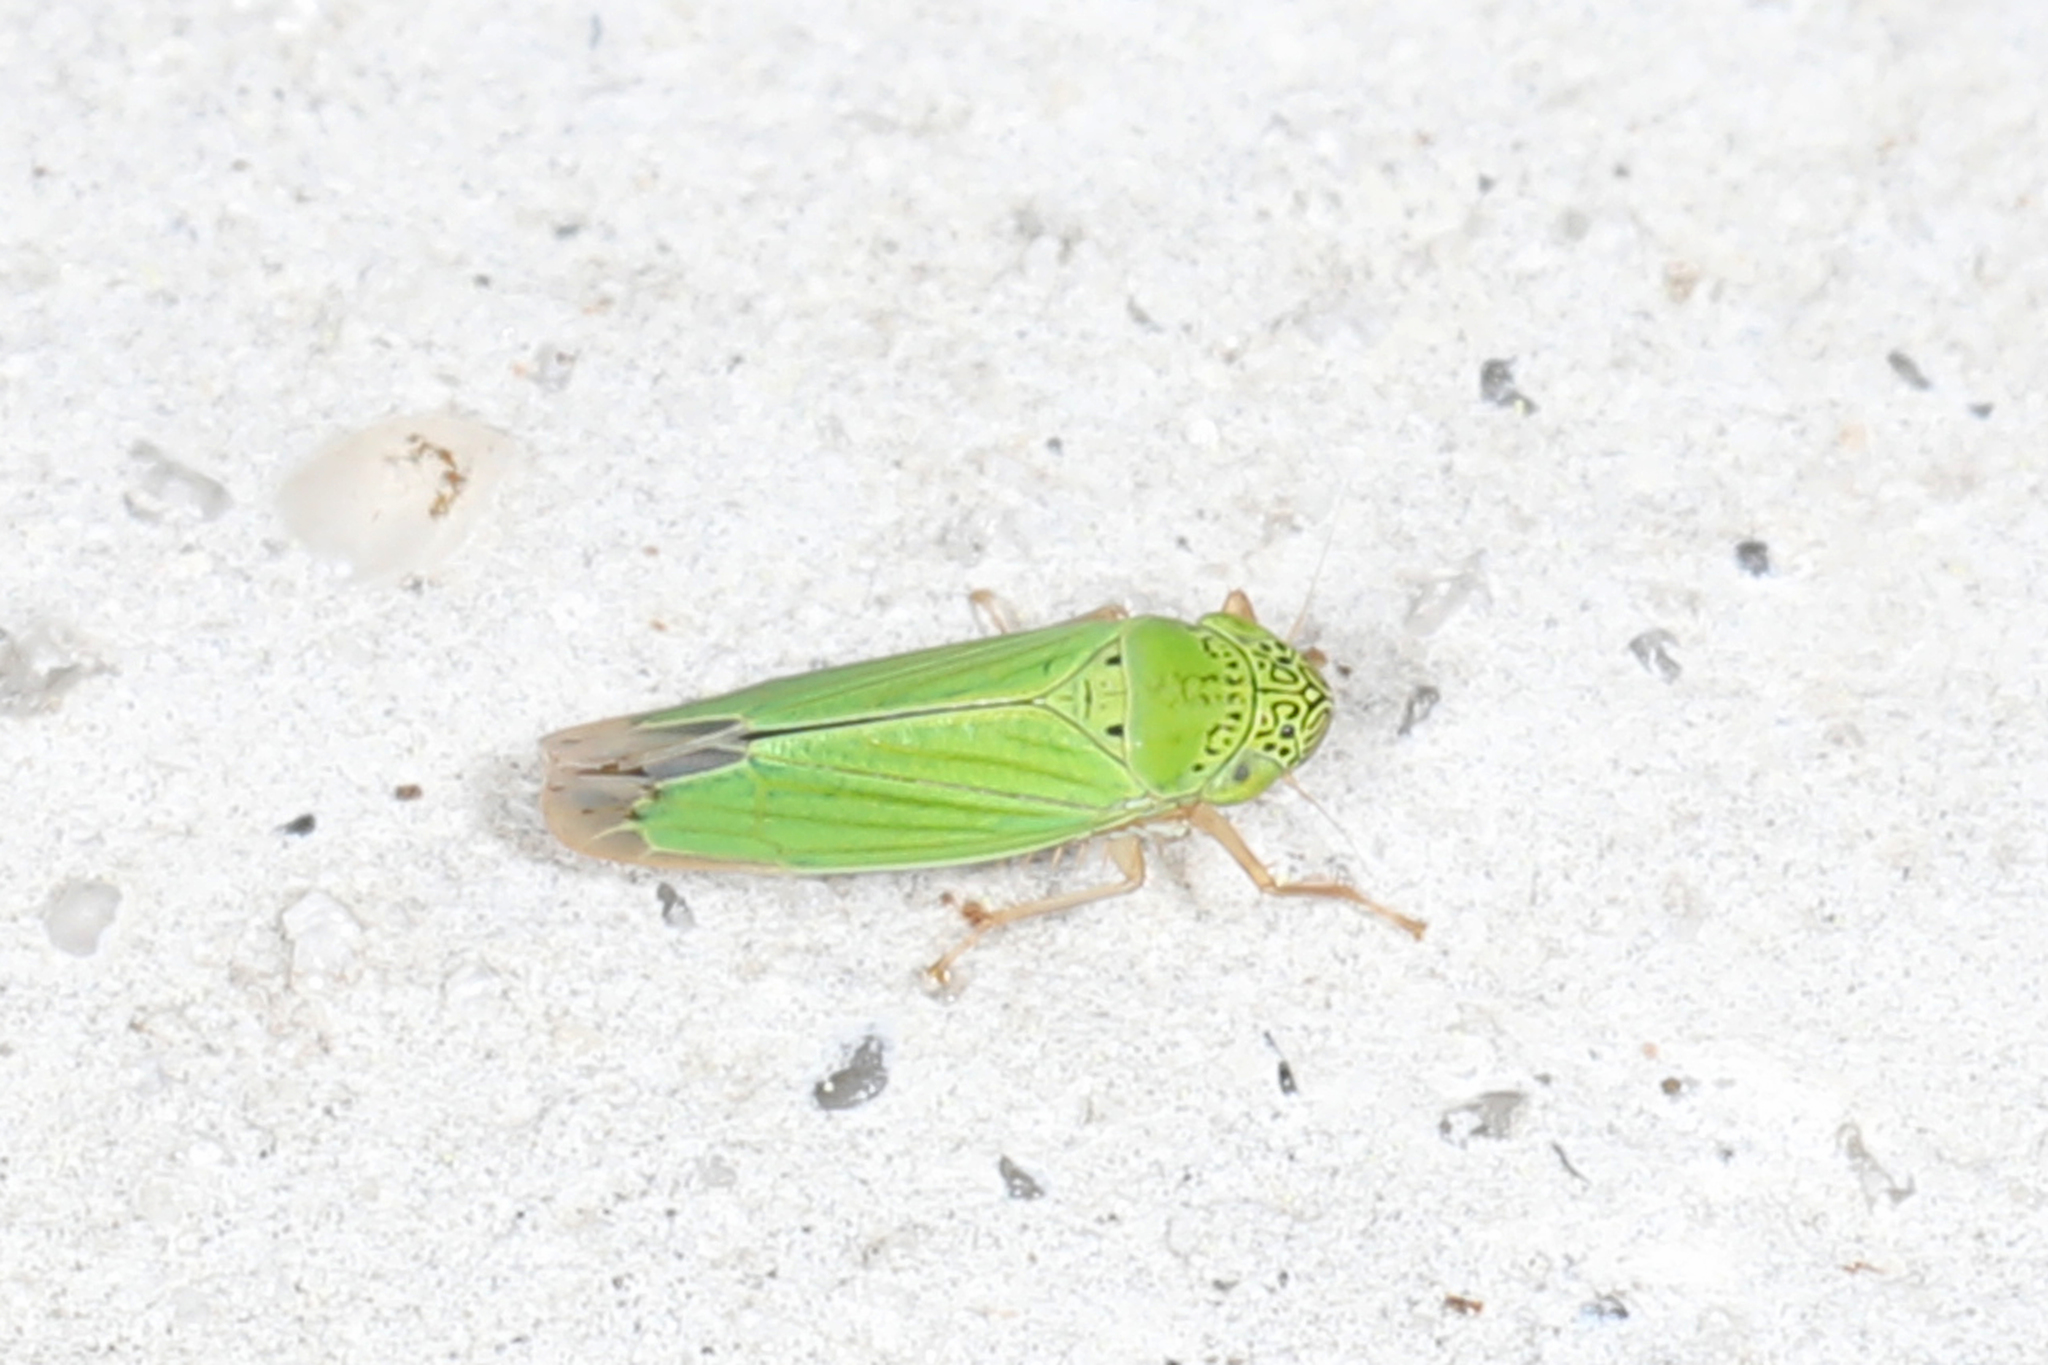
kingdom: Animalia
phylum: Arthropoda
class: Insecta
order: Hemiptera
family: Cicadellidae
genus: Hortensia
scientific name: Hortensia similis
